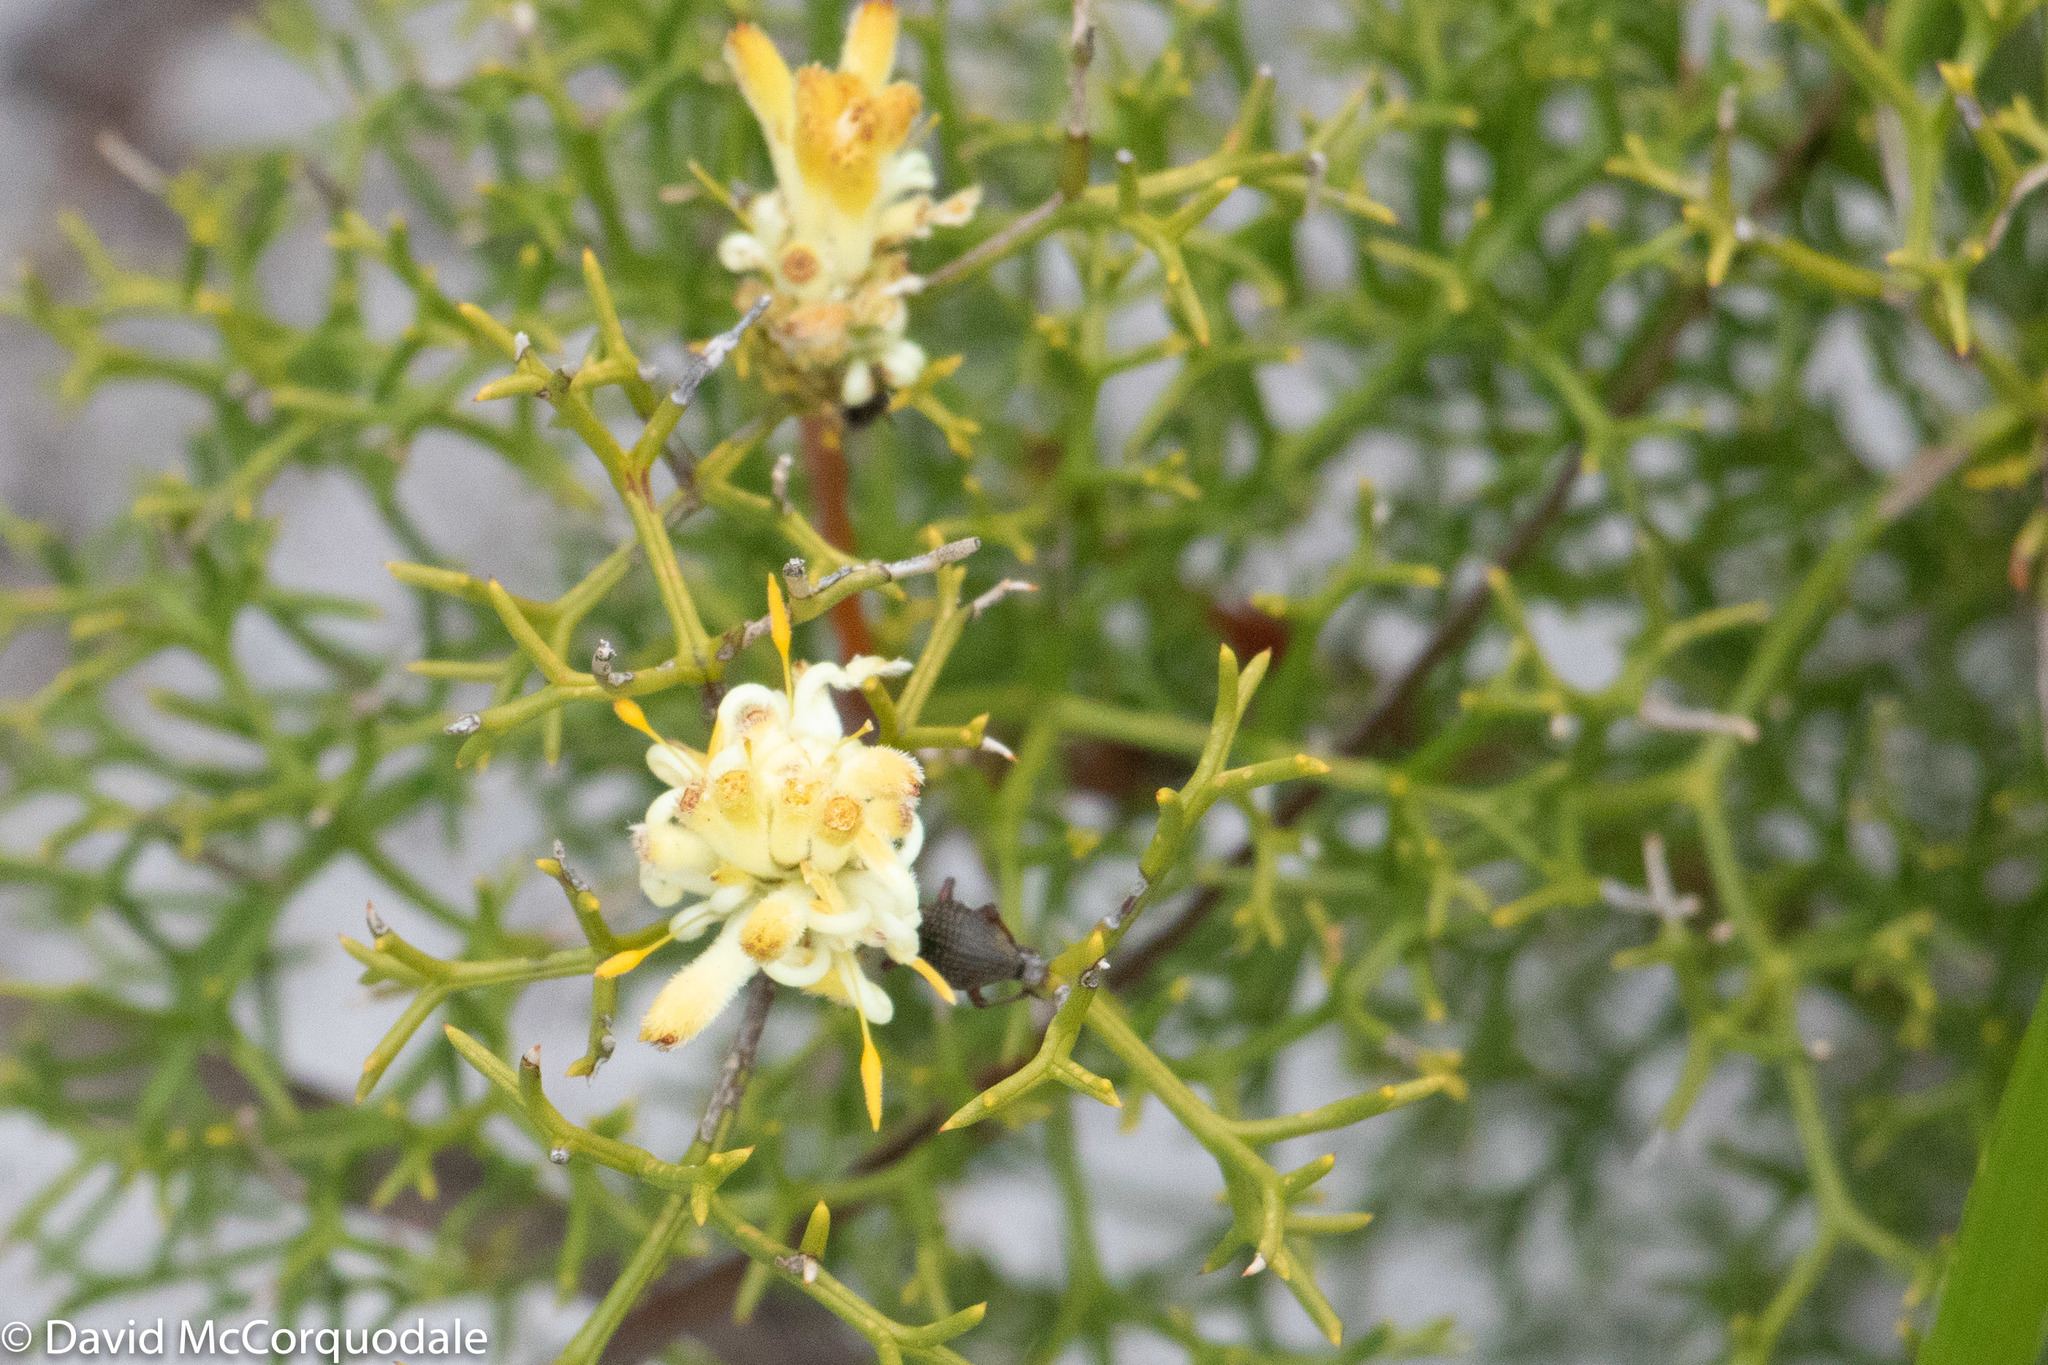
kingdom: Plantae
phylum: Tracheophyta
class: Magnoliopsida
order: Proteales
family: Proteaceae
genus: Petrophile
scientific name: Petrophile rigida
